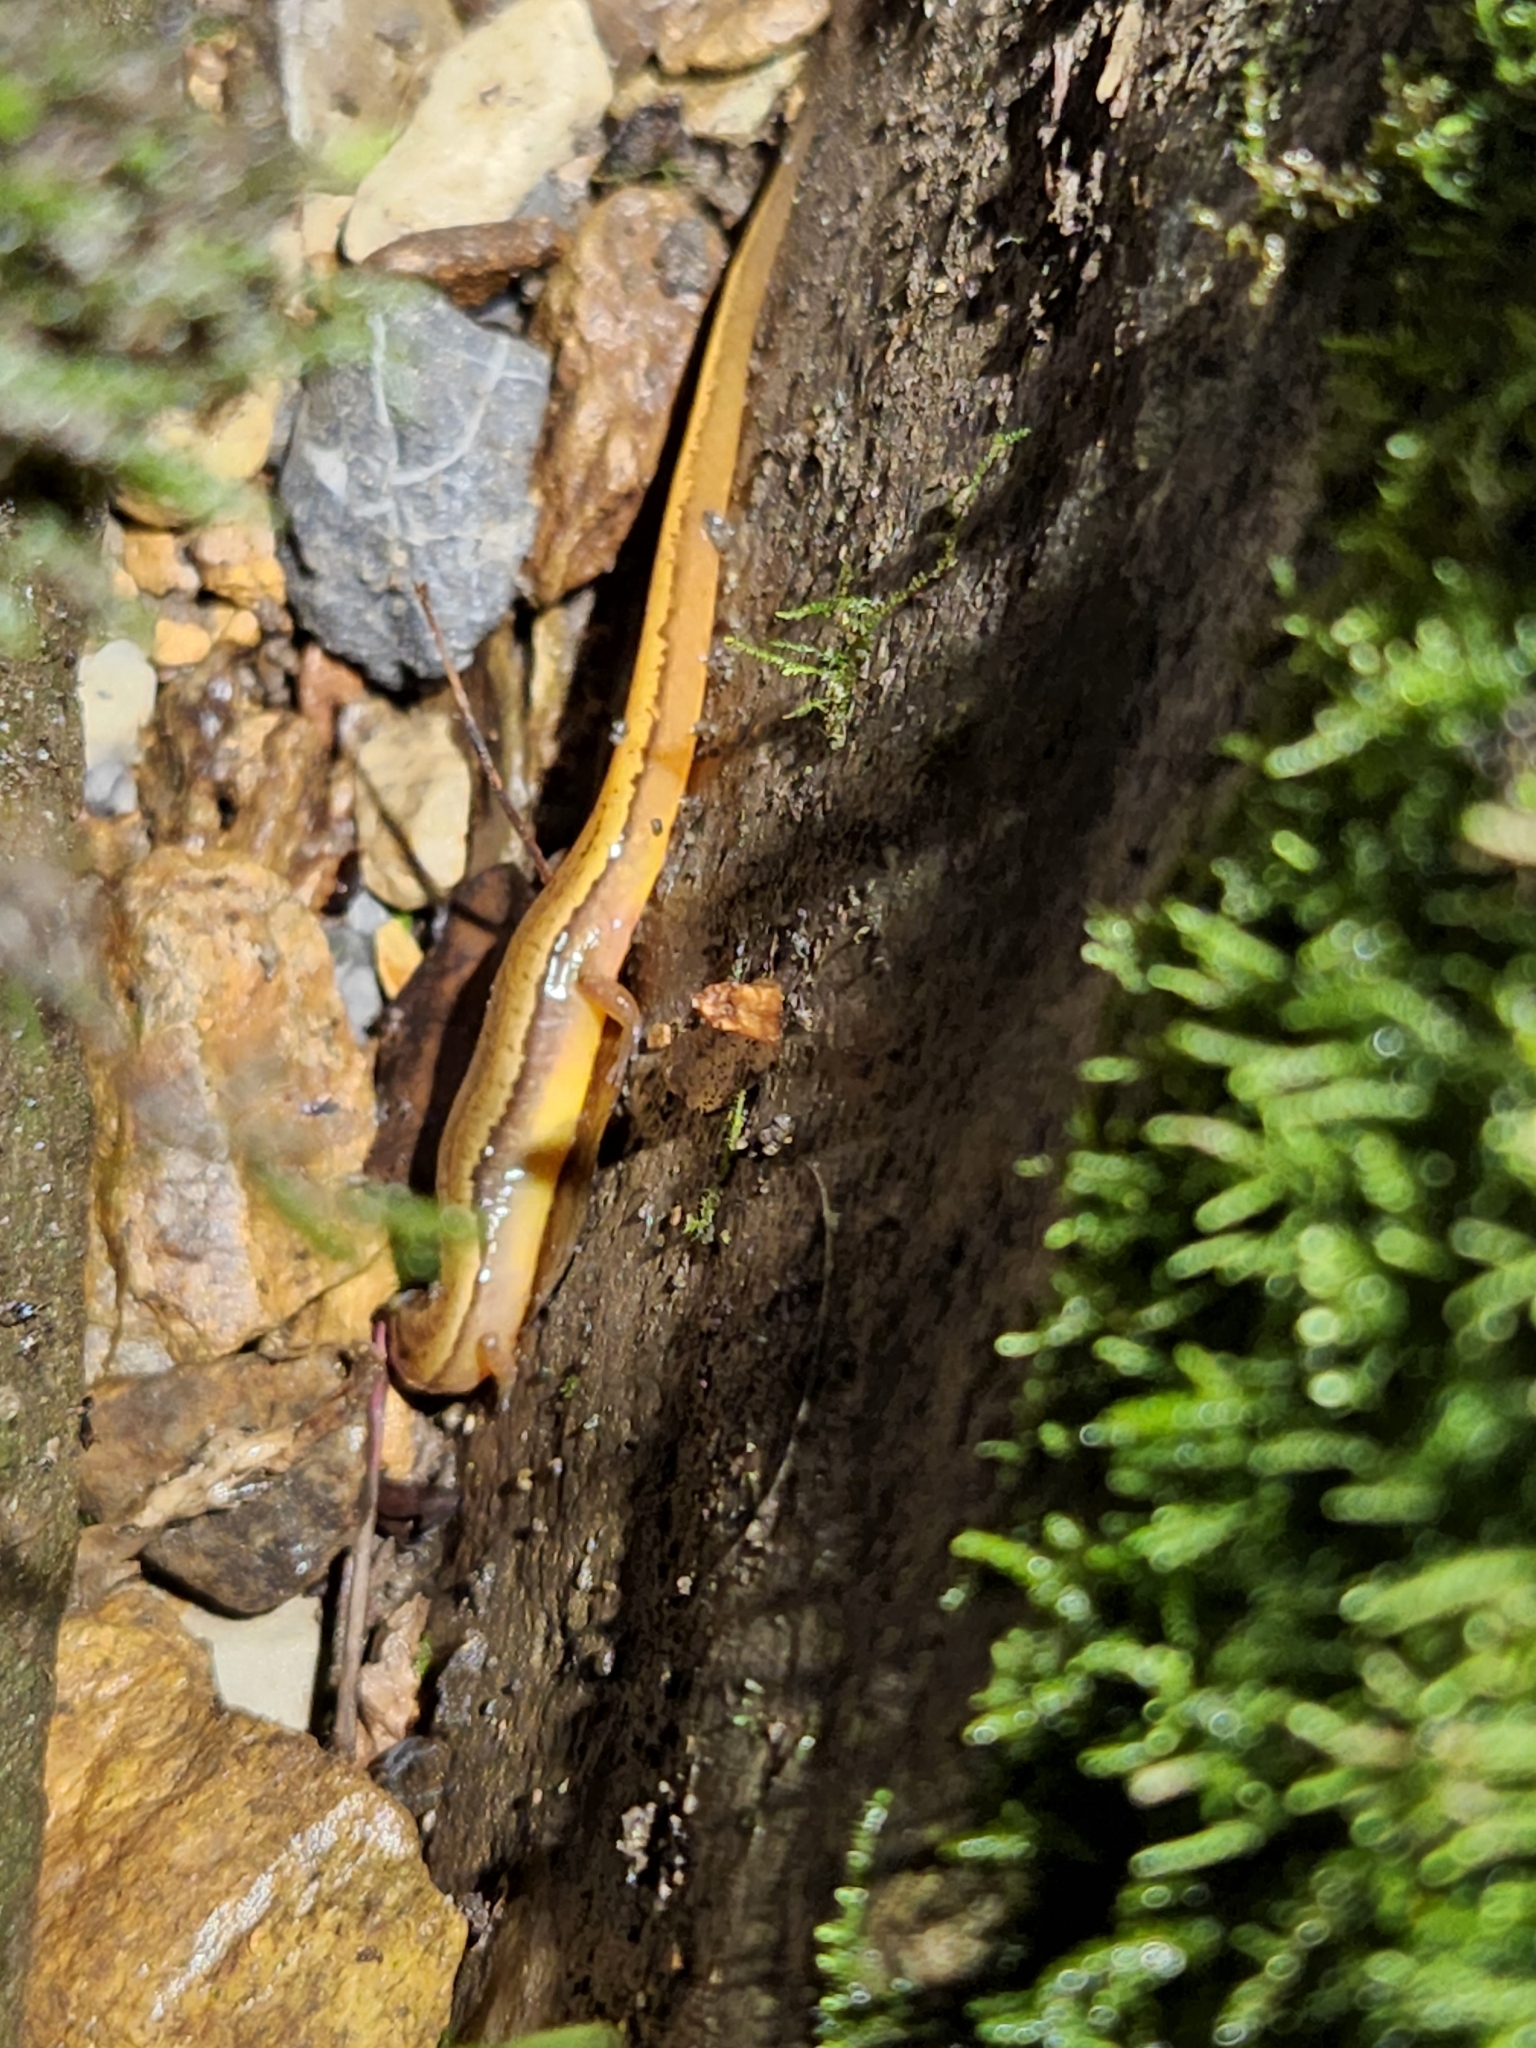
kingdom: Animalia
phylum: Chordata
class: Amphibia
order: Caudata
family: Plethodontidae
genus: Eurycea
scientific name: Eurycea bislineata
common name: Northern two-lined salamander
